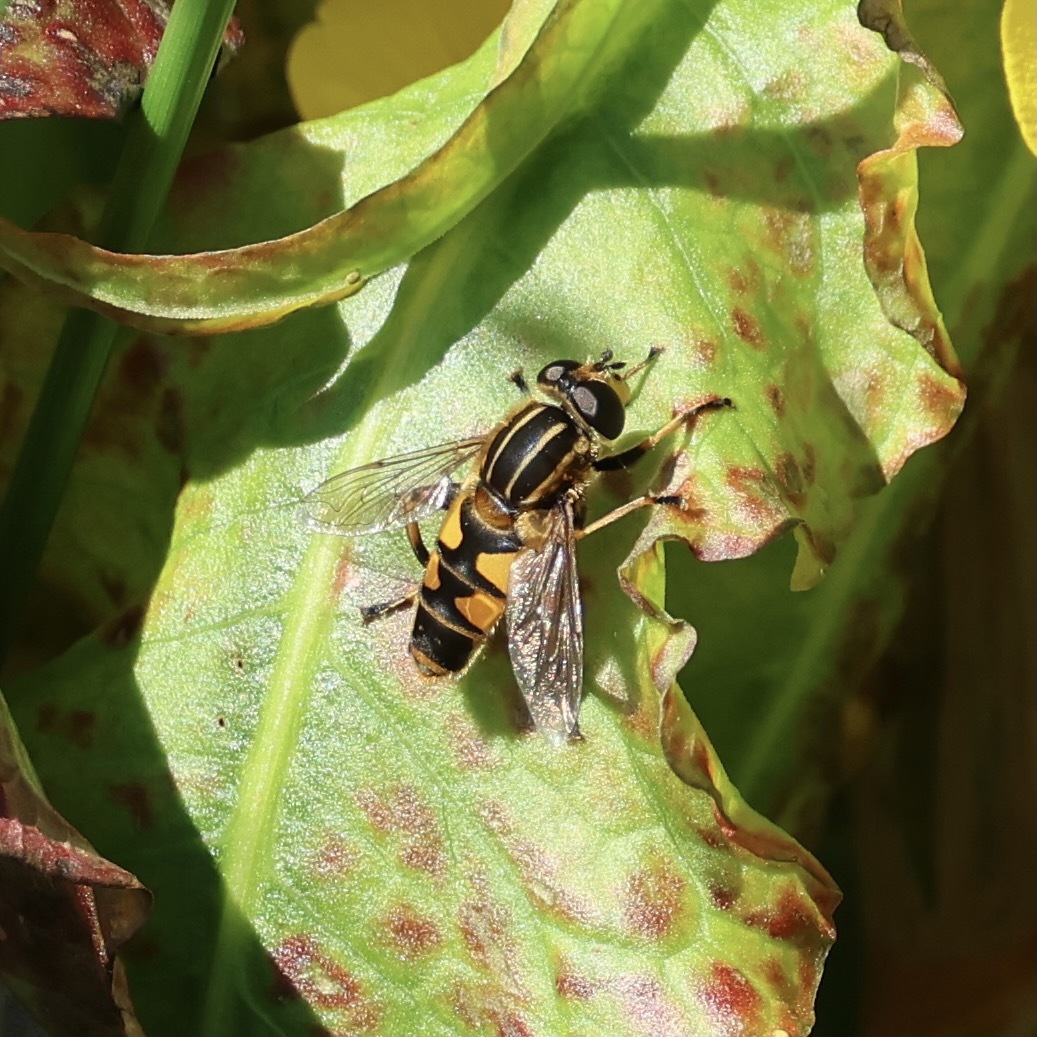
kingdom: Animalia
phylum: Arthropoda
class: Insecta
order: Diptera
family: Syrphidae
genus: Helophilus
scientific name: Helophilus pendulus
